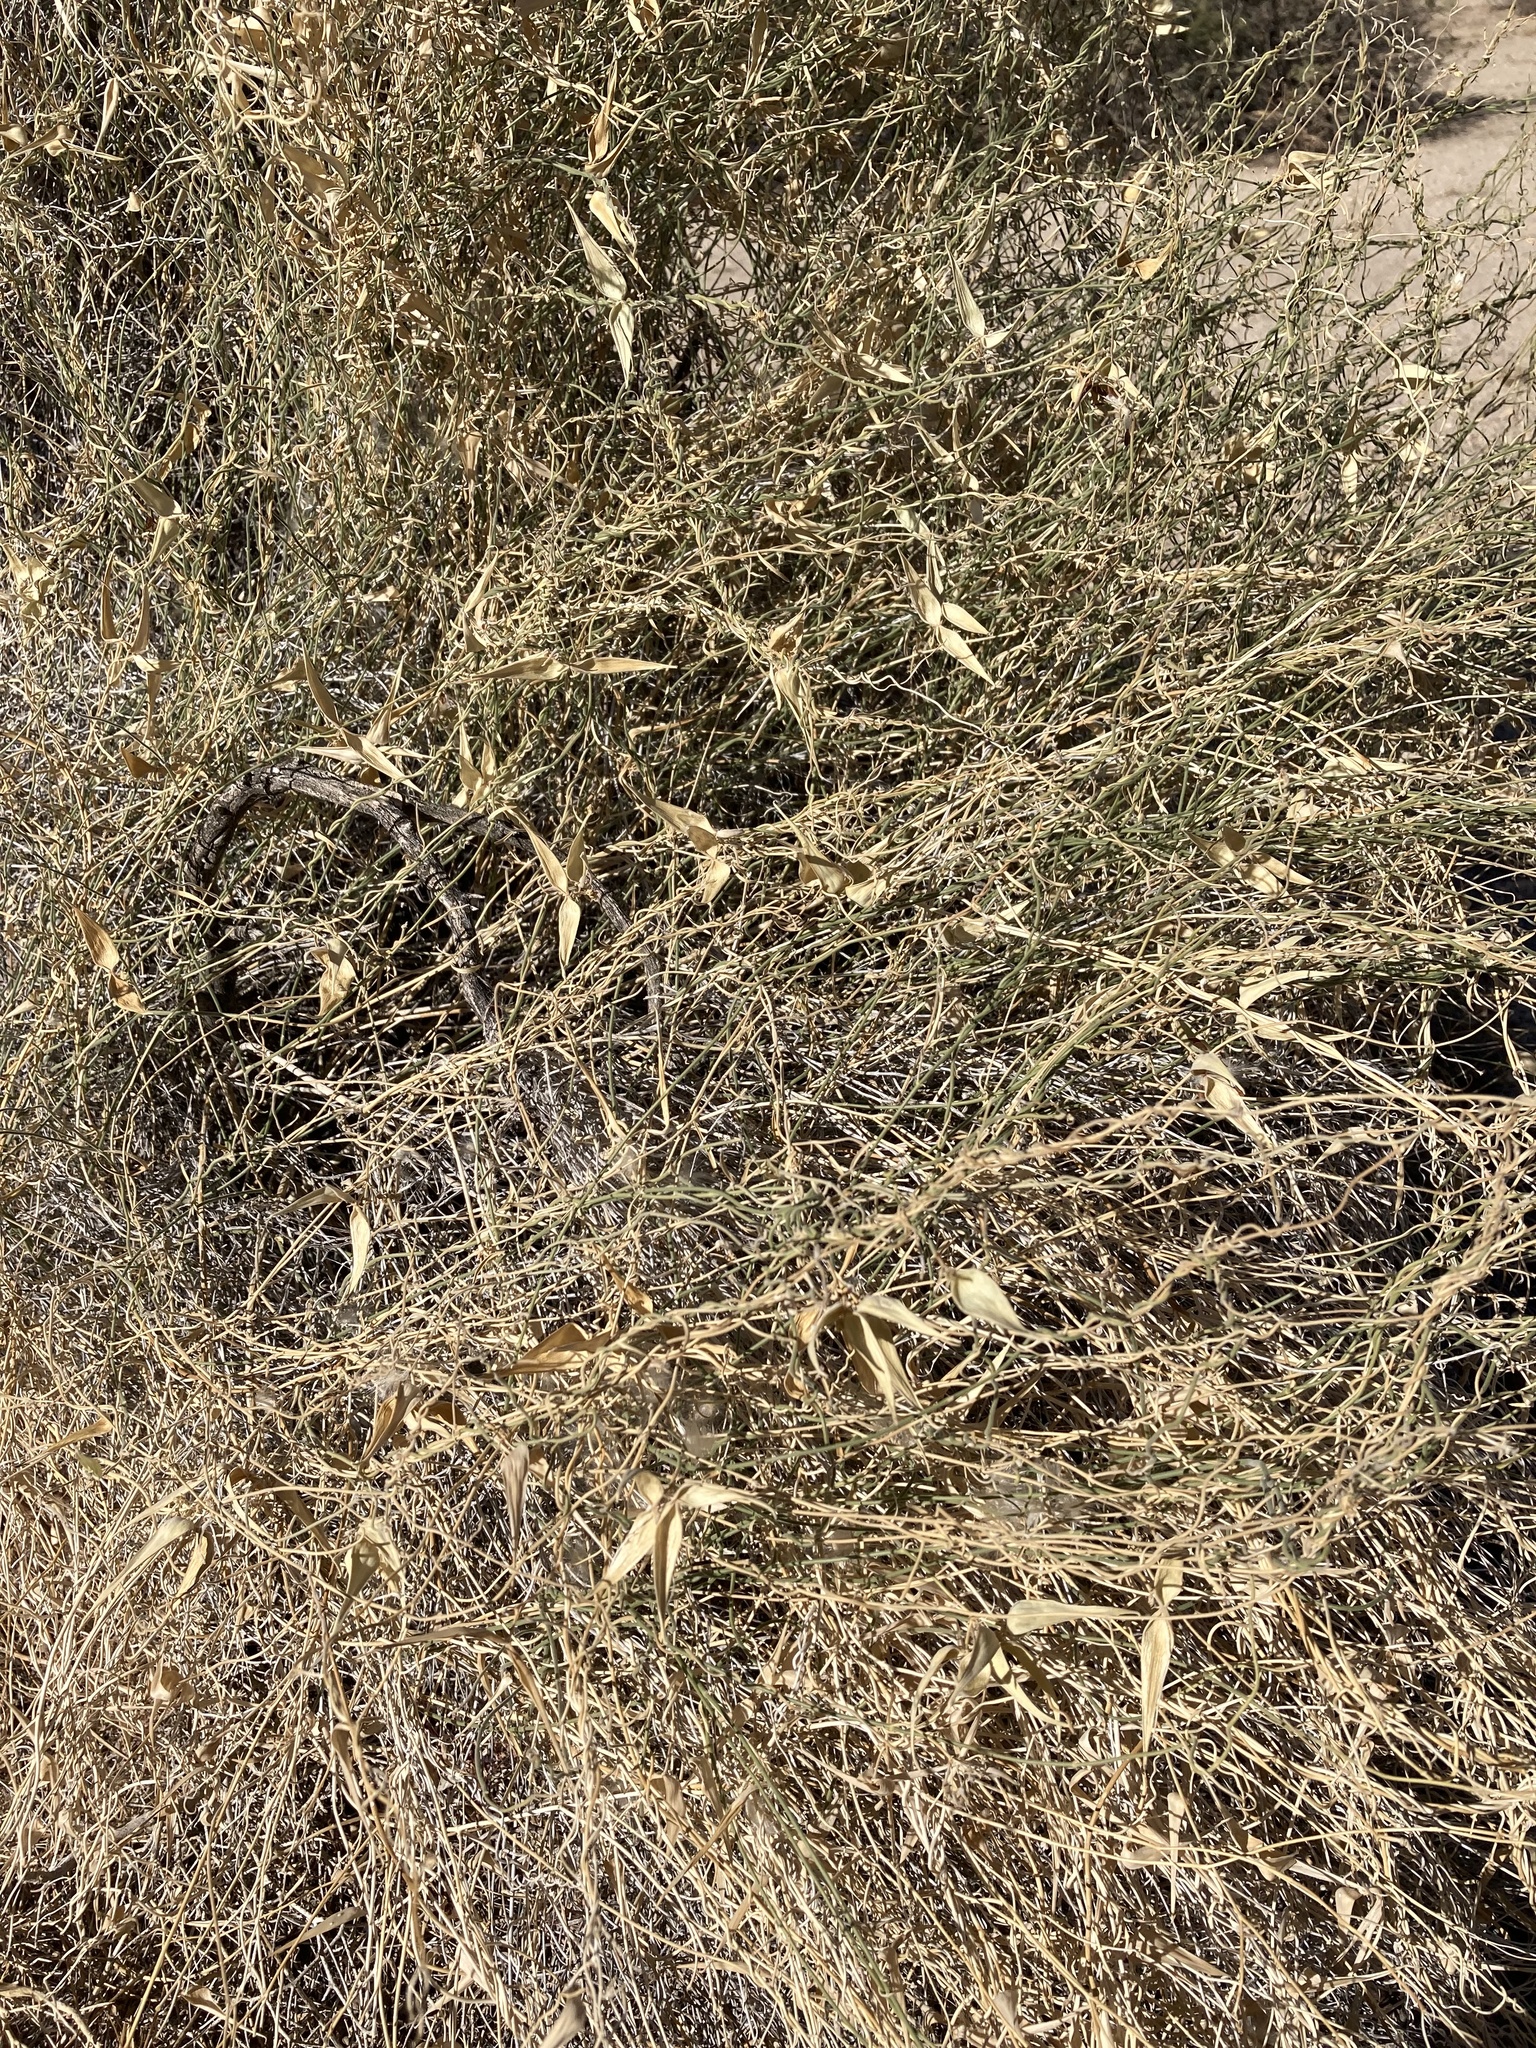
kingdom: Plantae
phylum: Tracheophyta
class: Magnoliopsida
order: Gentianales
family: Apocynaceae
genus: Funastrum
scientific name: Funastrum hirtellum
